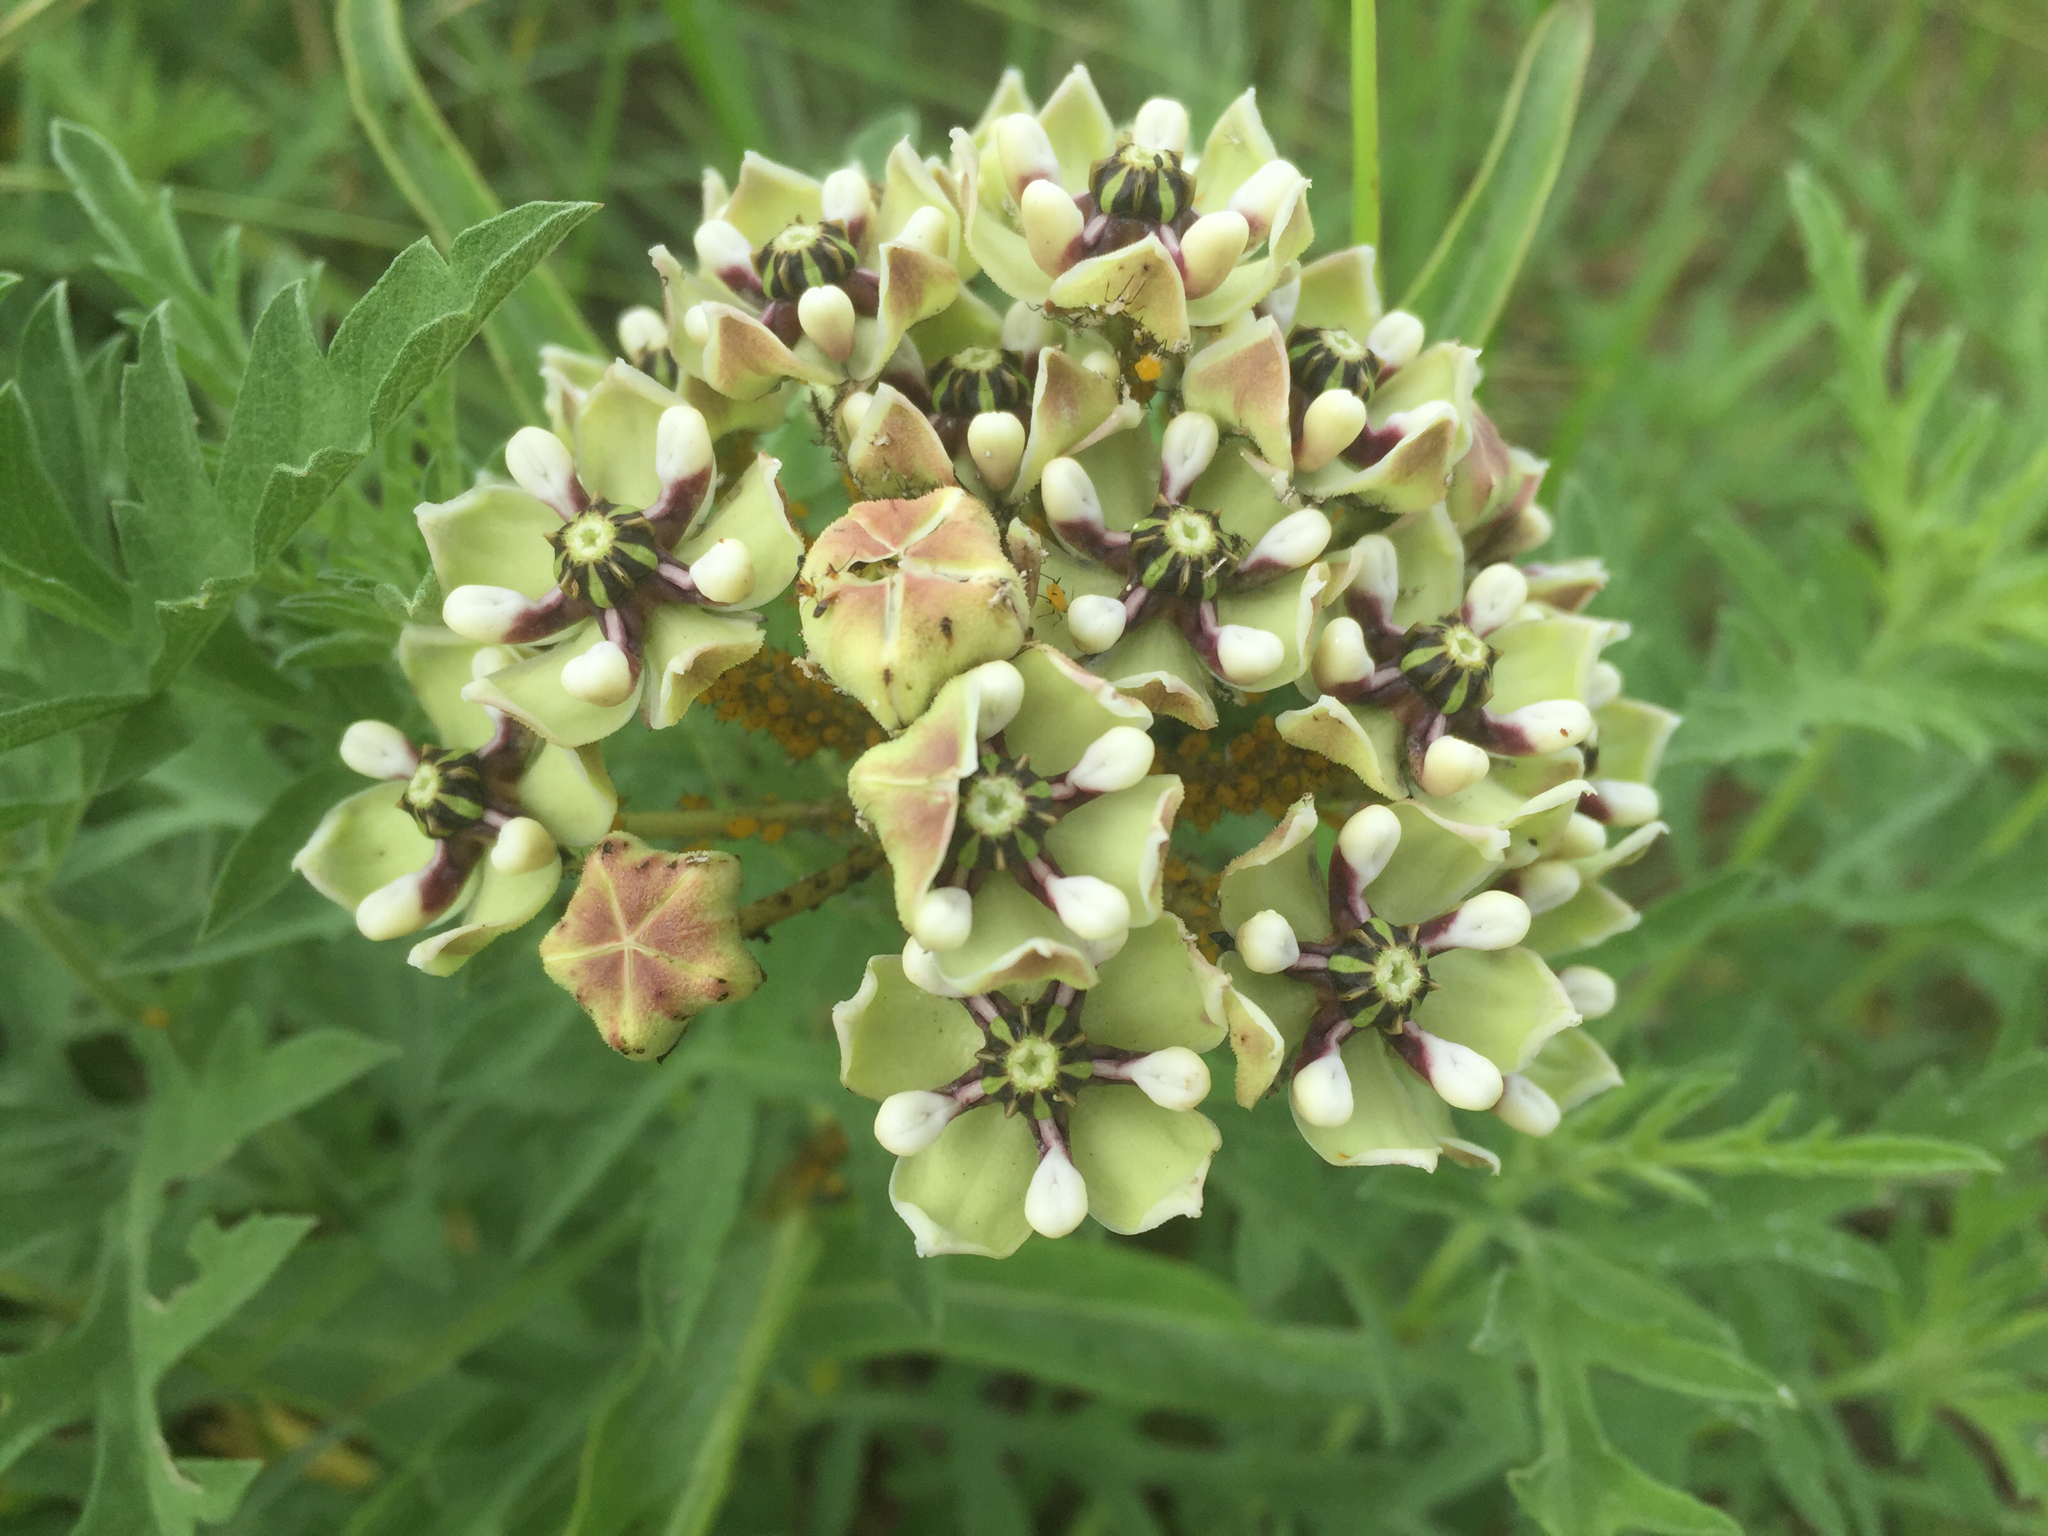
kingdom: Plantae
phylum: Tracheophyta
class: Magnoliopsida
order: Gentianales
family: Apocynaceae
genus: Asclepias
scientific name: Asclepias asperula
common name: Antelope horns
